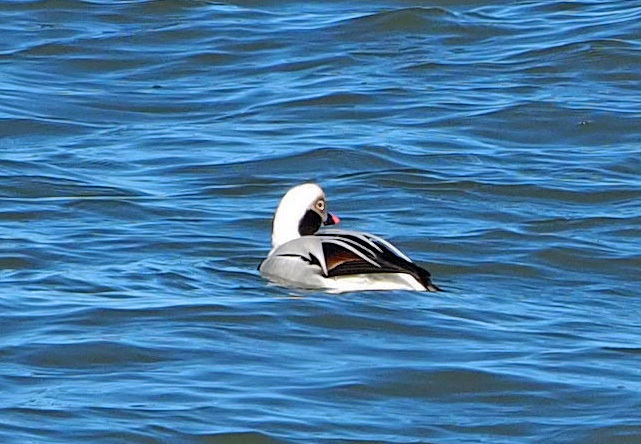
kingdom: Animalia
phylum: Chordata
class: Aves
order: Anseriformes
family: Anatidae
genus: Clangula
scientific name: Clangula hyemalis
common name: Long-tailed duck
